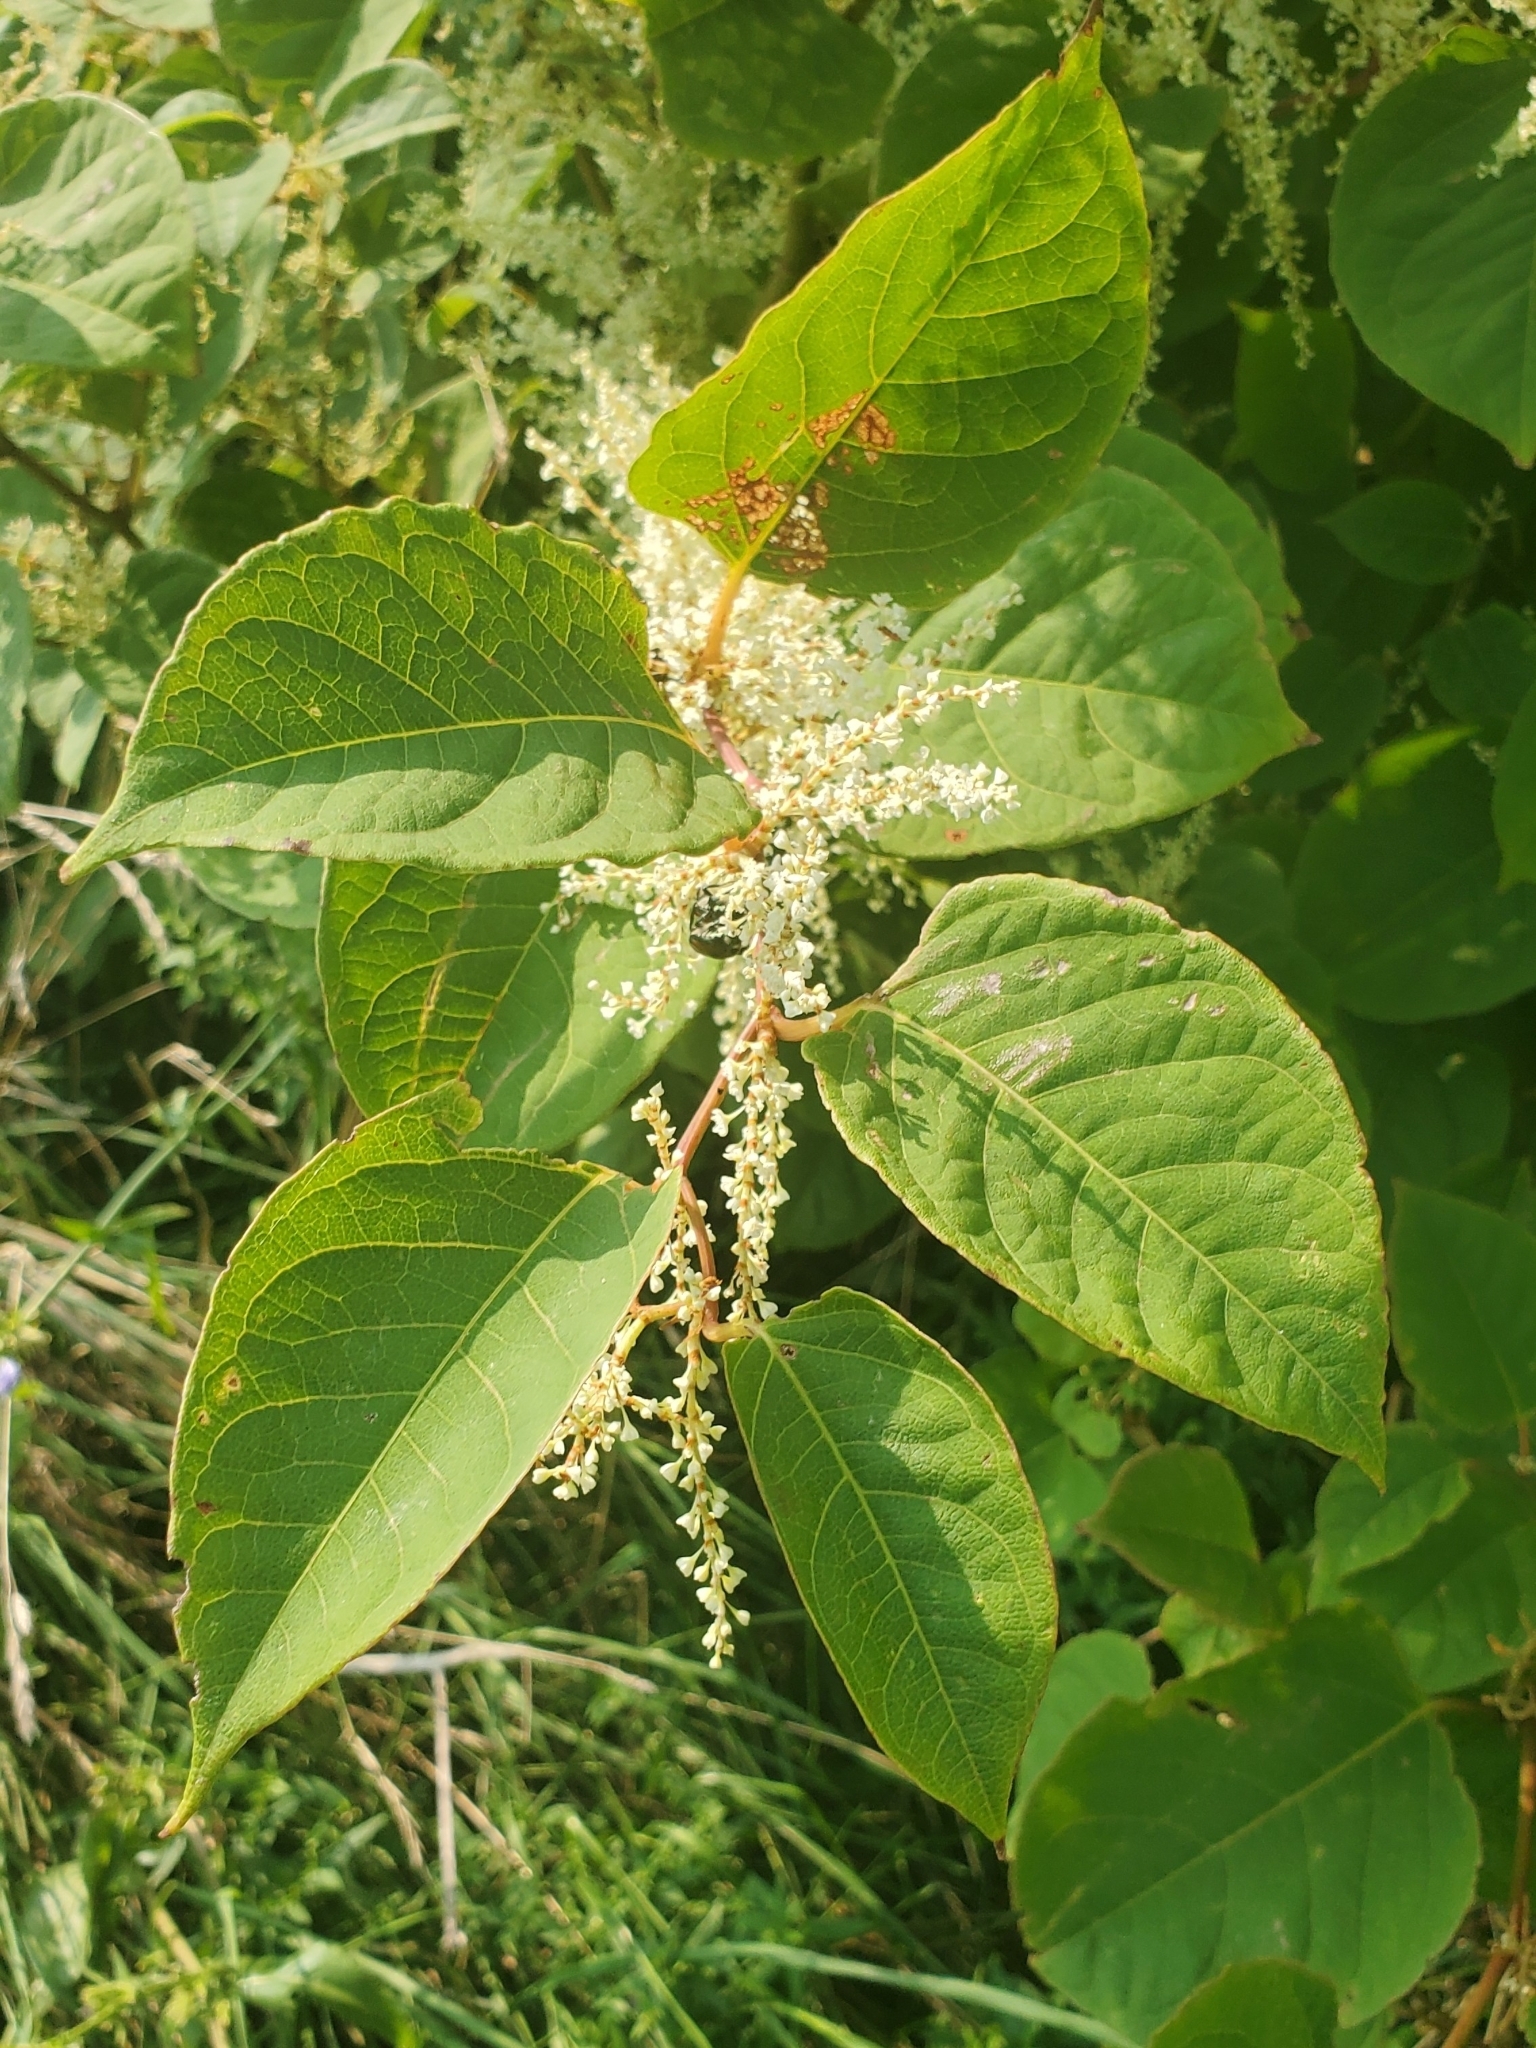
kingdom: Plantae
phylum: Tracheophyta
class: Magnoliopsida
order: Caryophyllales
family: Polygonaceae
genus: Reynoutria
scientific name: Reynoutria japonica
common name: Japanese knotweed
